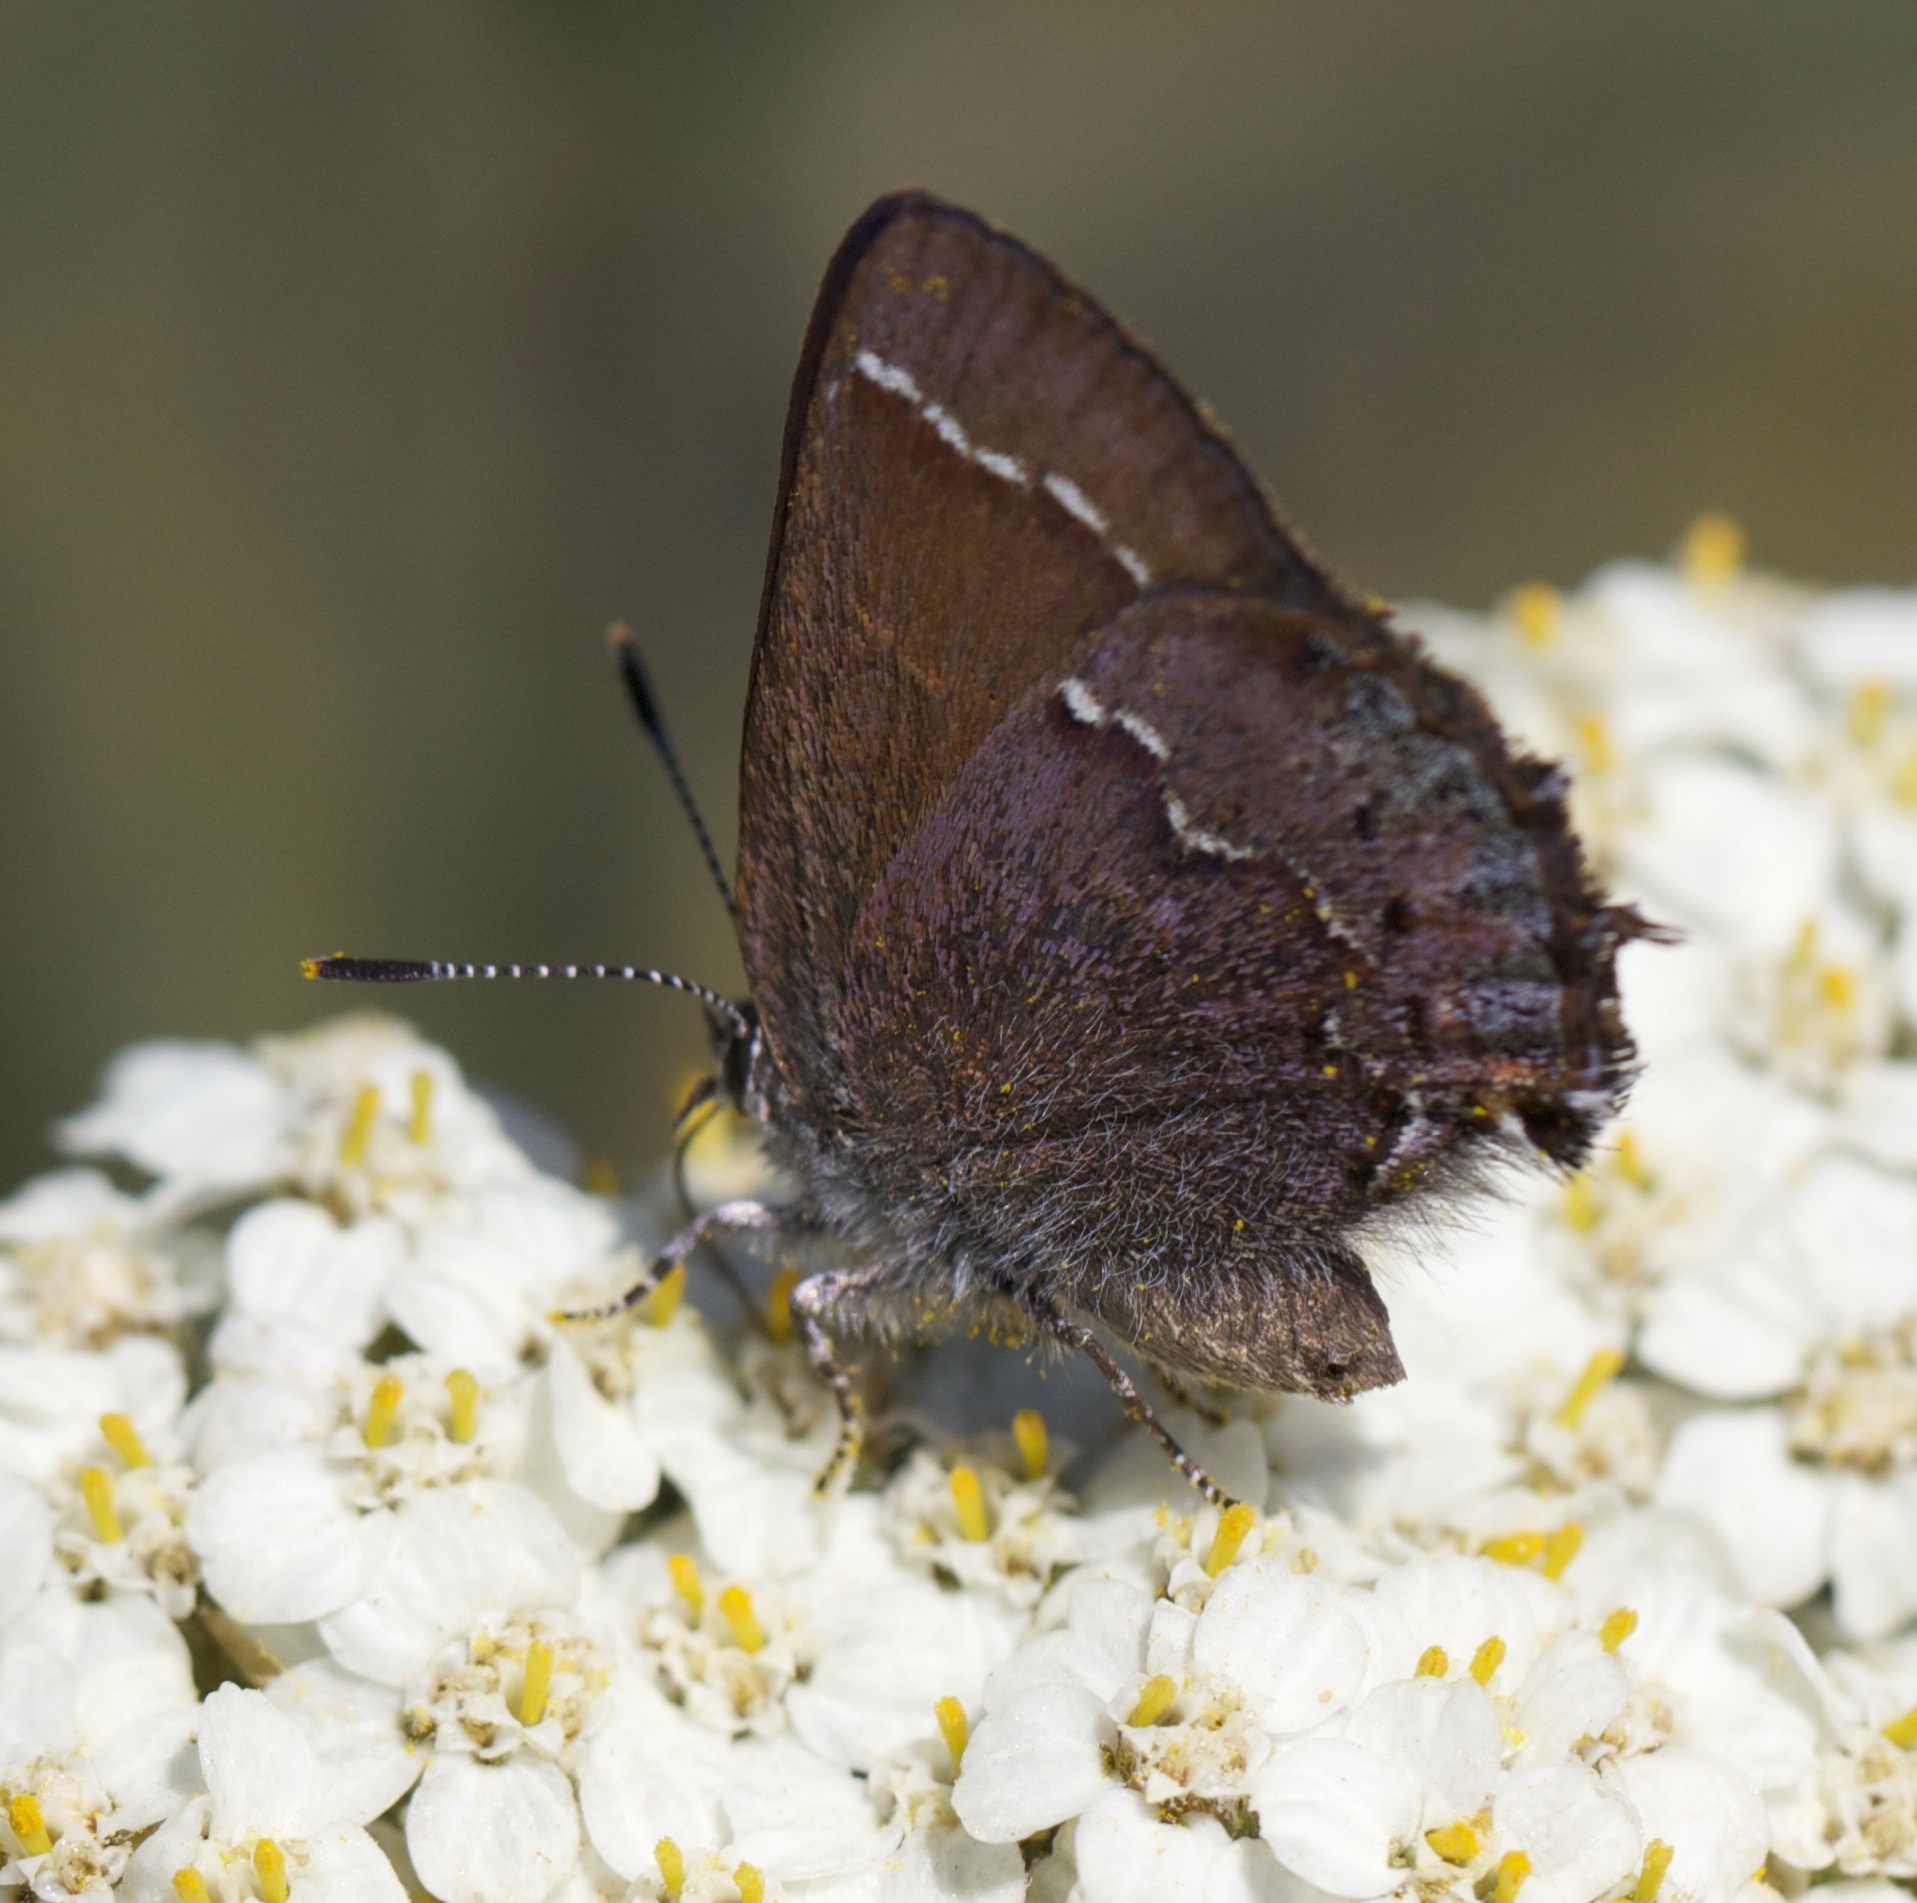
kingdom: Animalia
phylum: Arthropoda
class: Insecta
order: Lepidoptera
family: Lycaenidae
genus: Callophrys
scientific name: Callophrys muiri
